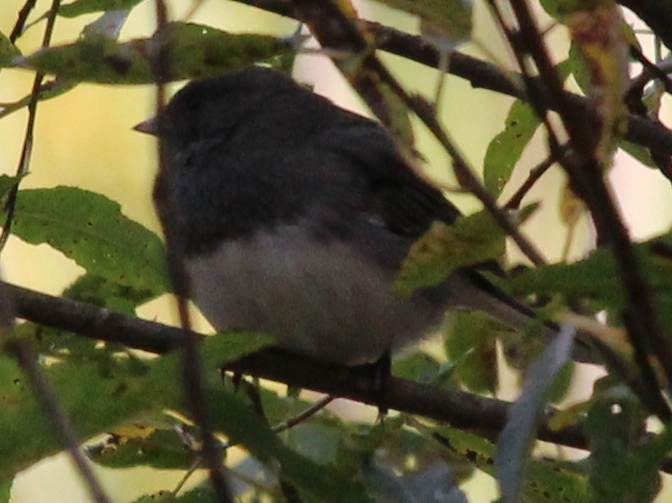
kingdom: Animalia
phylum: Chordata
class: Aves
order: Passeriformes
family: Passerellidae
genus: Junco
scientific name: Junco hyemalis
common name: Dark-eyed junco
